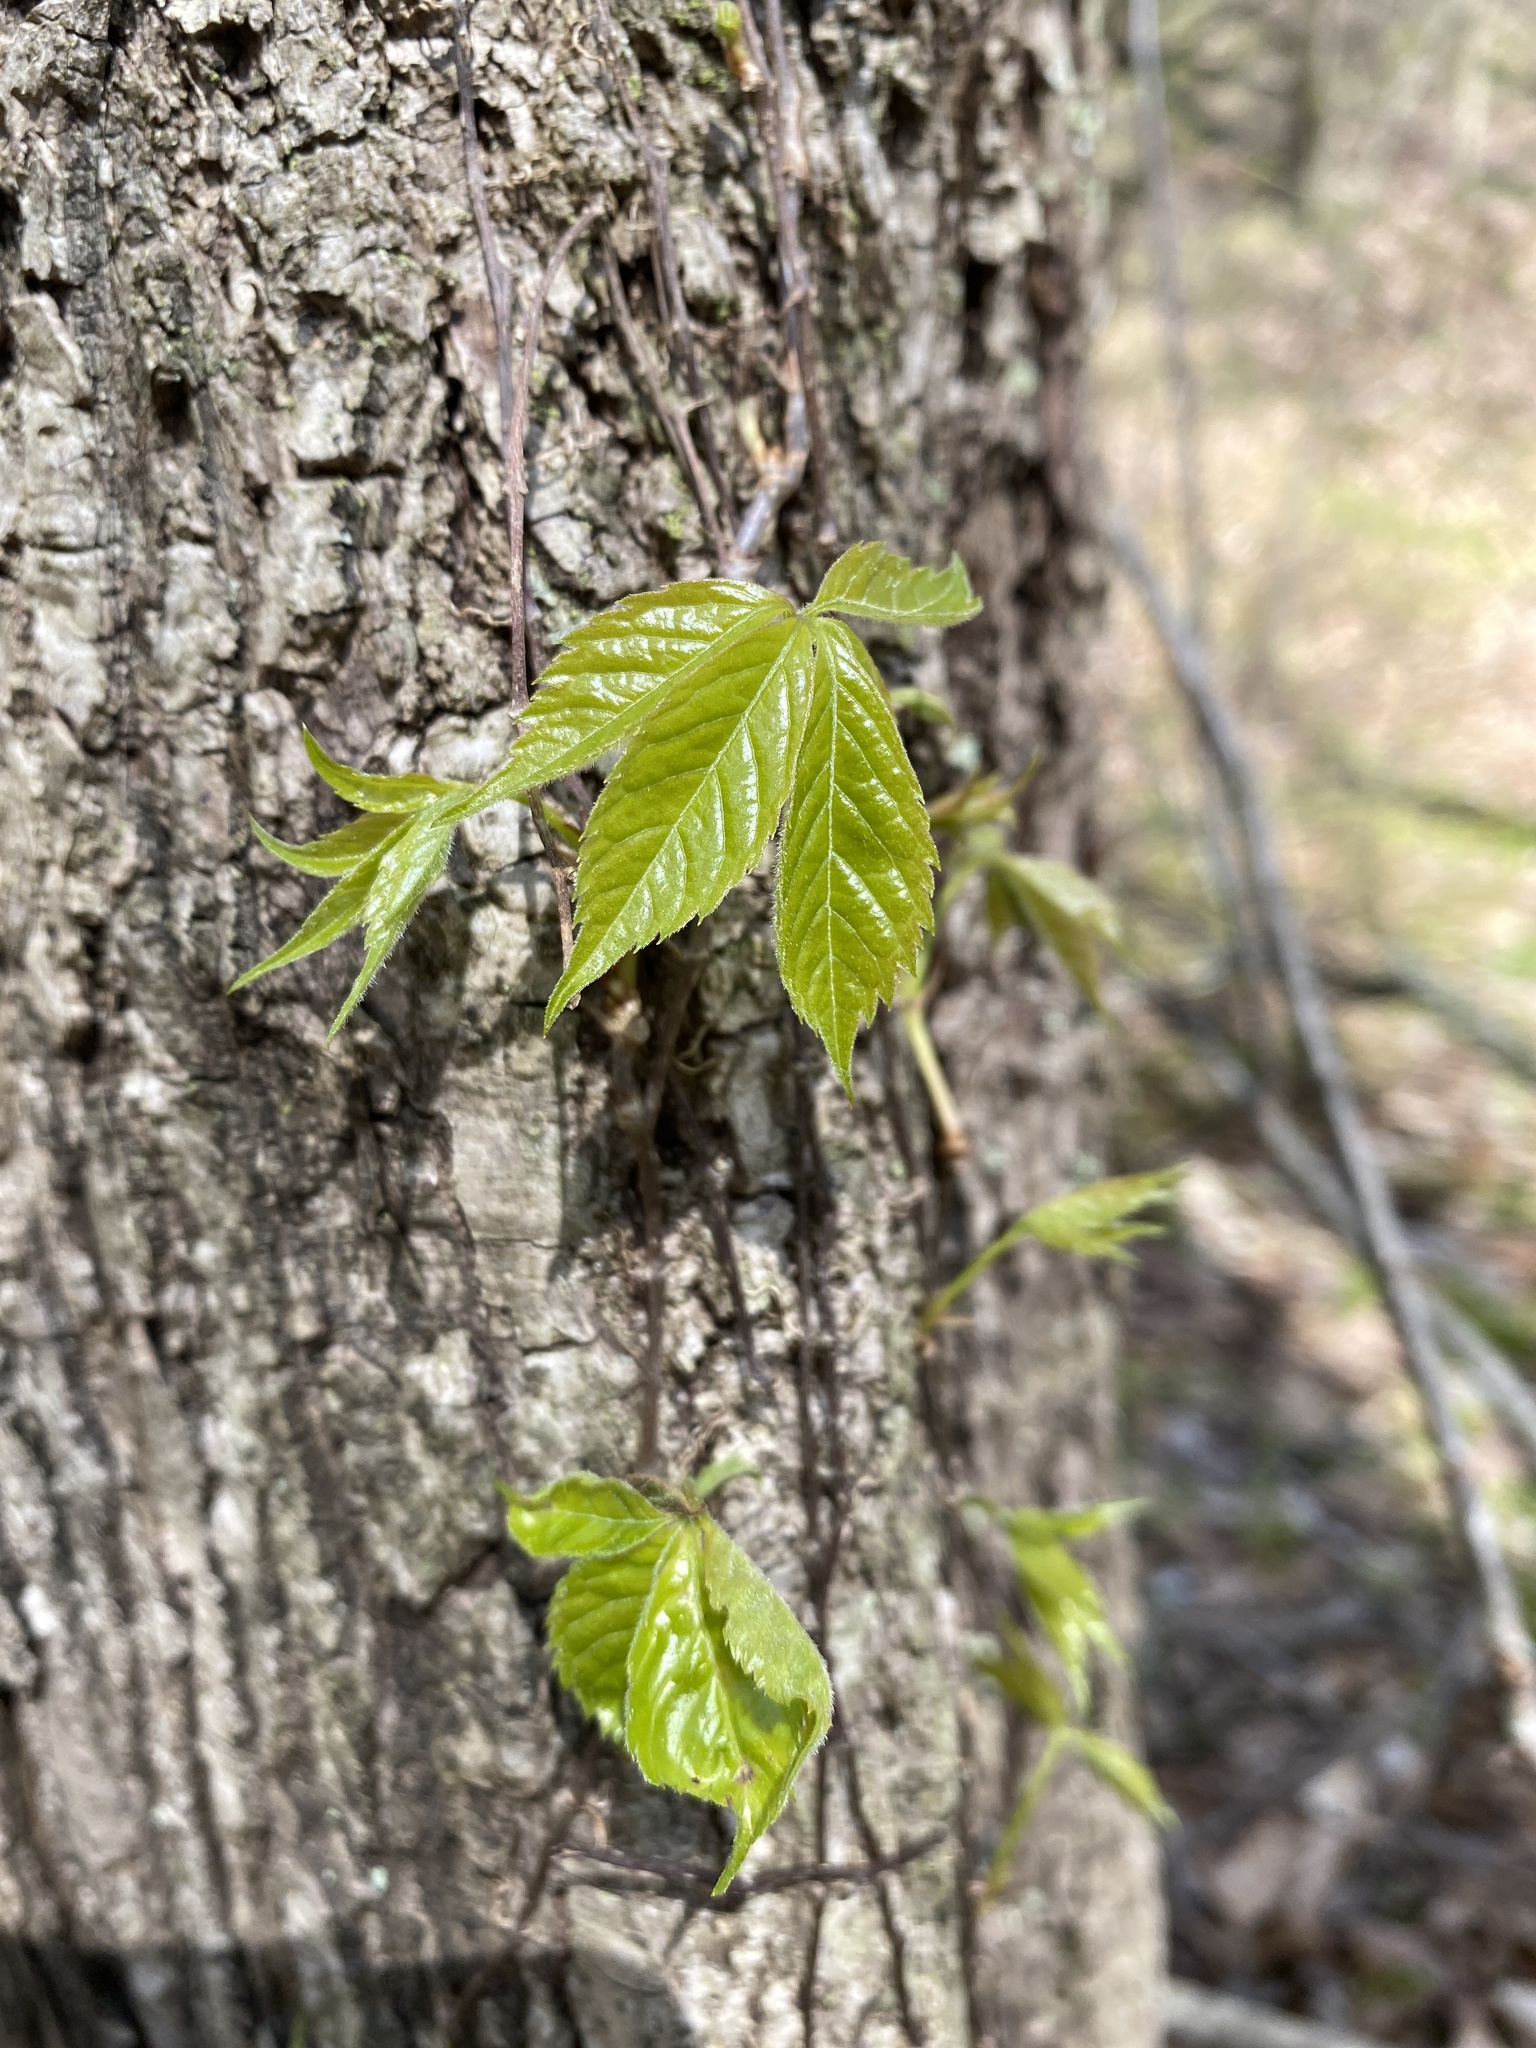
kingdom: Plantae
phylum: Tracheophyta
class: Magnoliopsida
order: Vitales
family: Vitaceae
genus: Parthenocissus
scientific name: Parthenocissus quinquefolia
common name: Virginia-creeper
